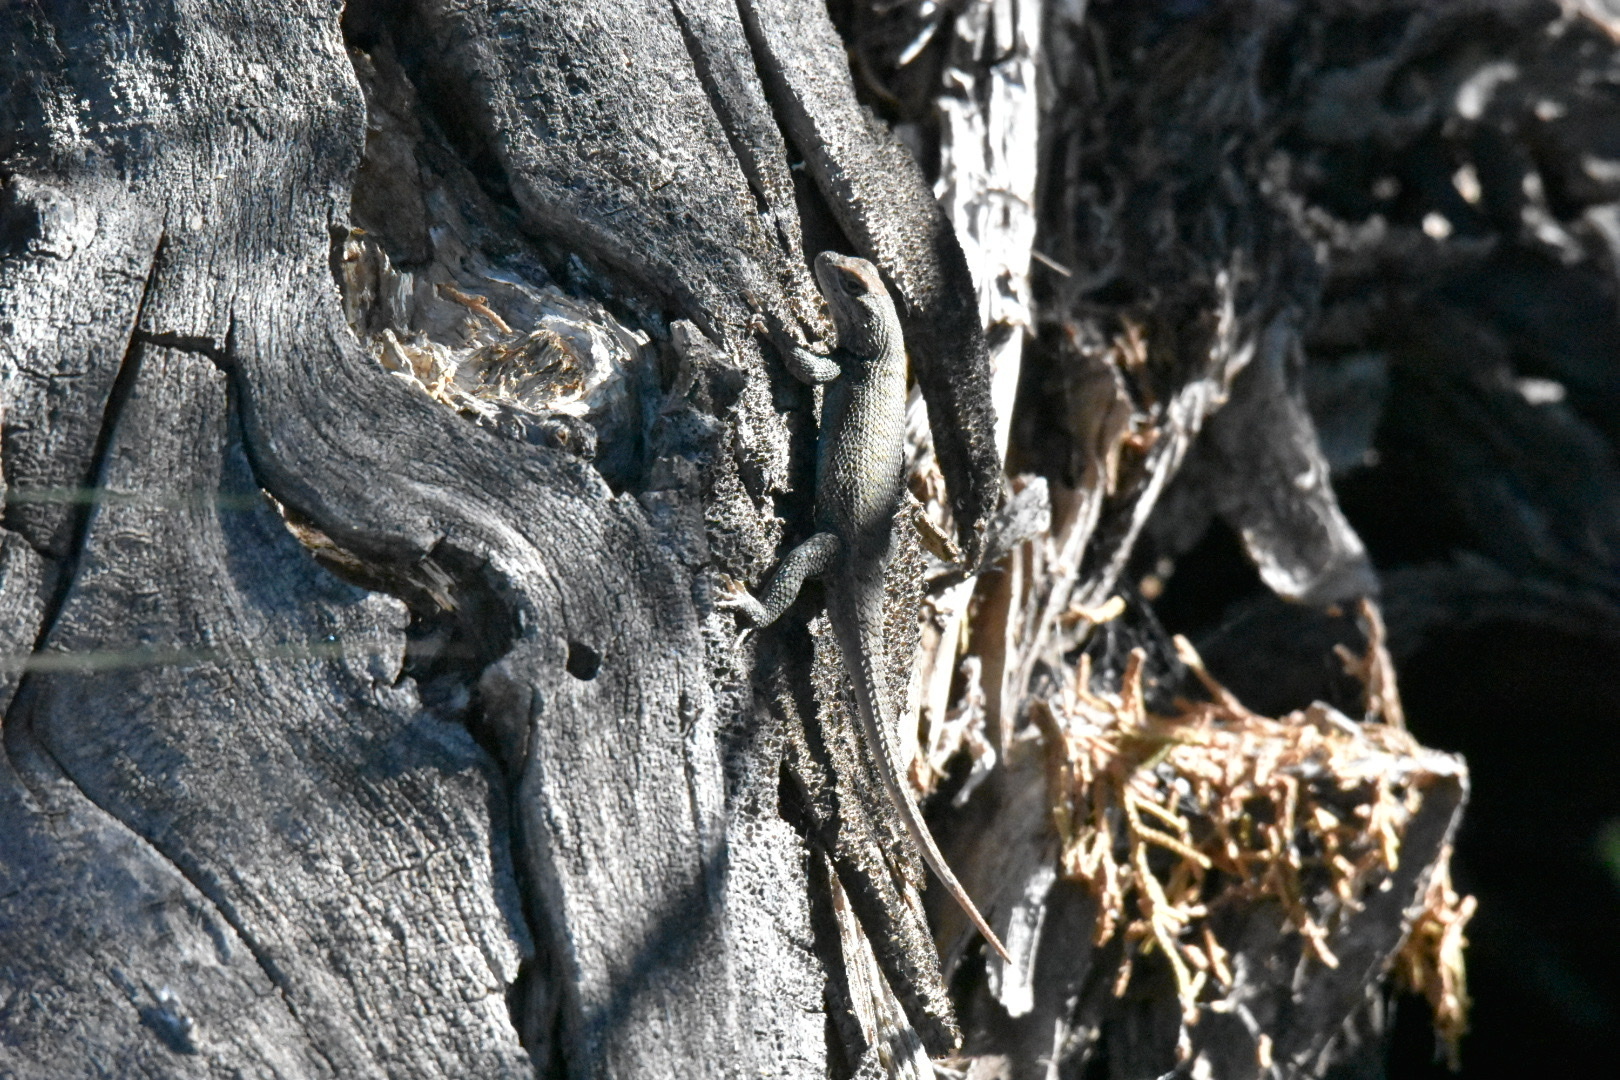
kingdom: Animalia
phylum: Chordata
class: Squamata
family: Phrynosomatidae
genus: Sceloporus
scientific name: Sceloporus consobrinus
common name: Southern prairie lizard
